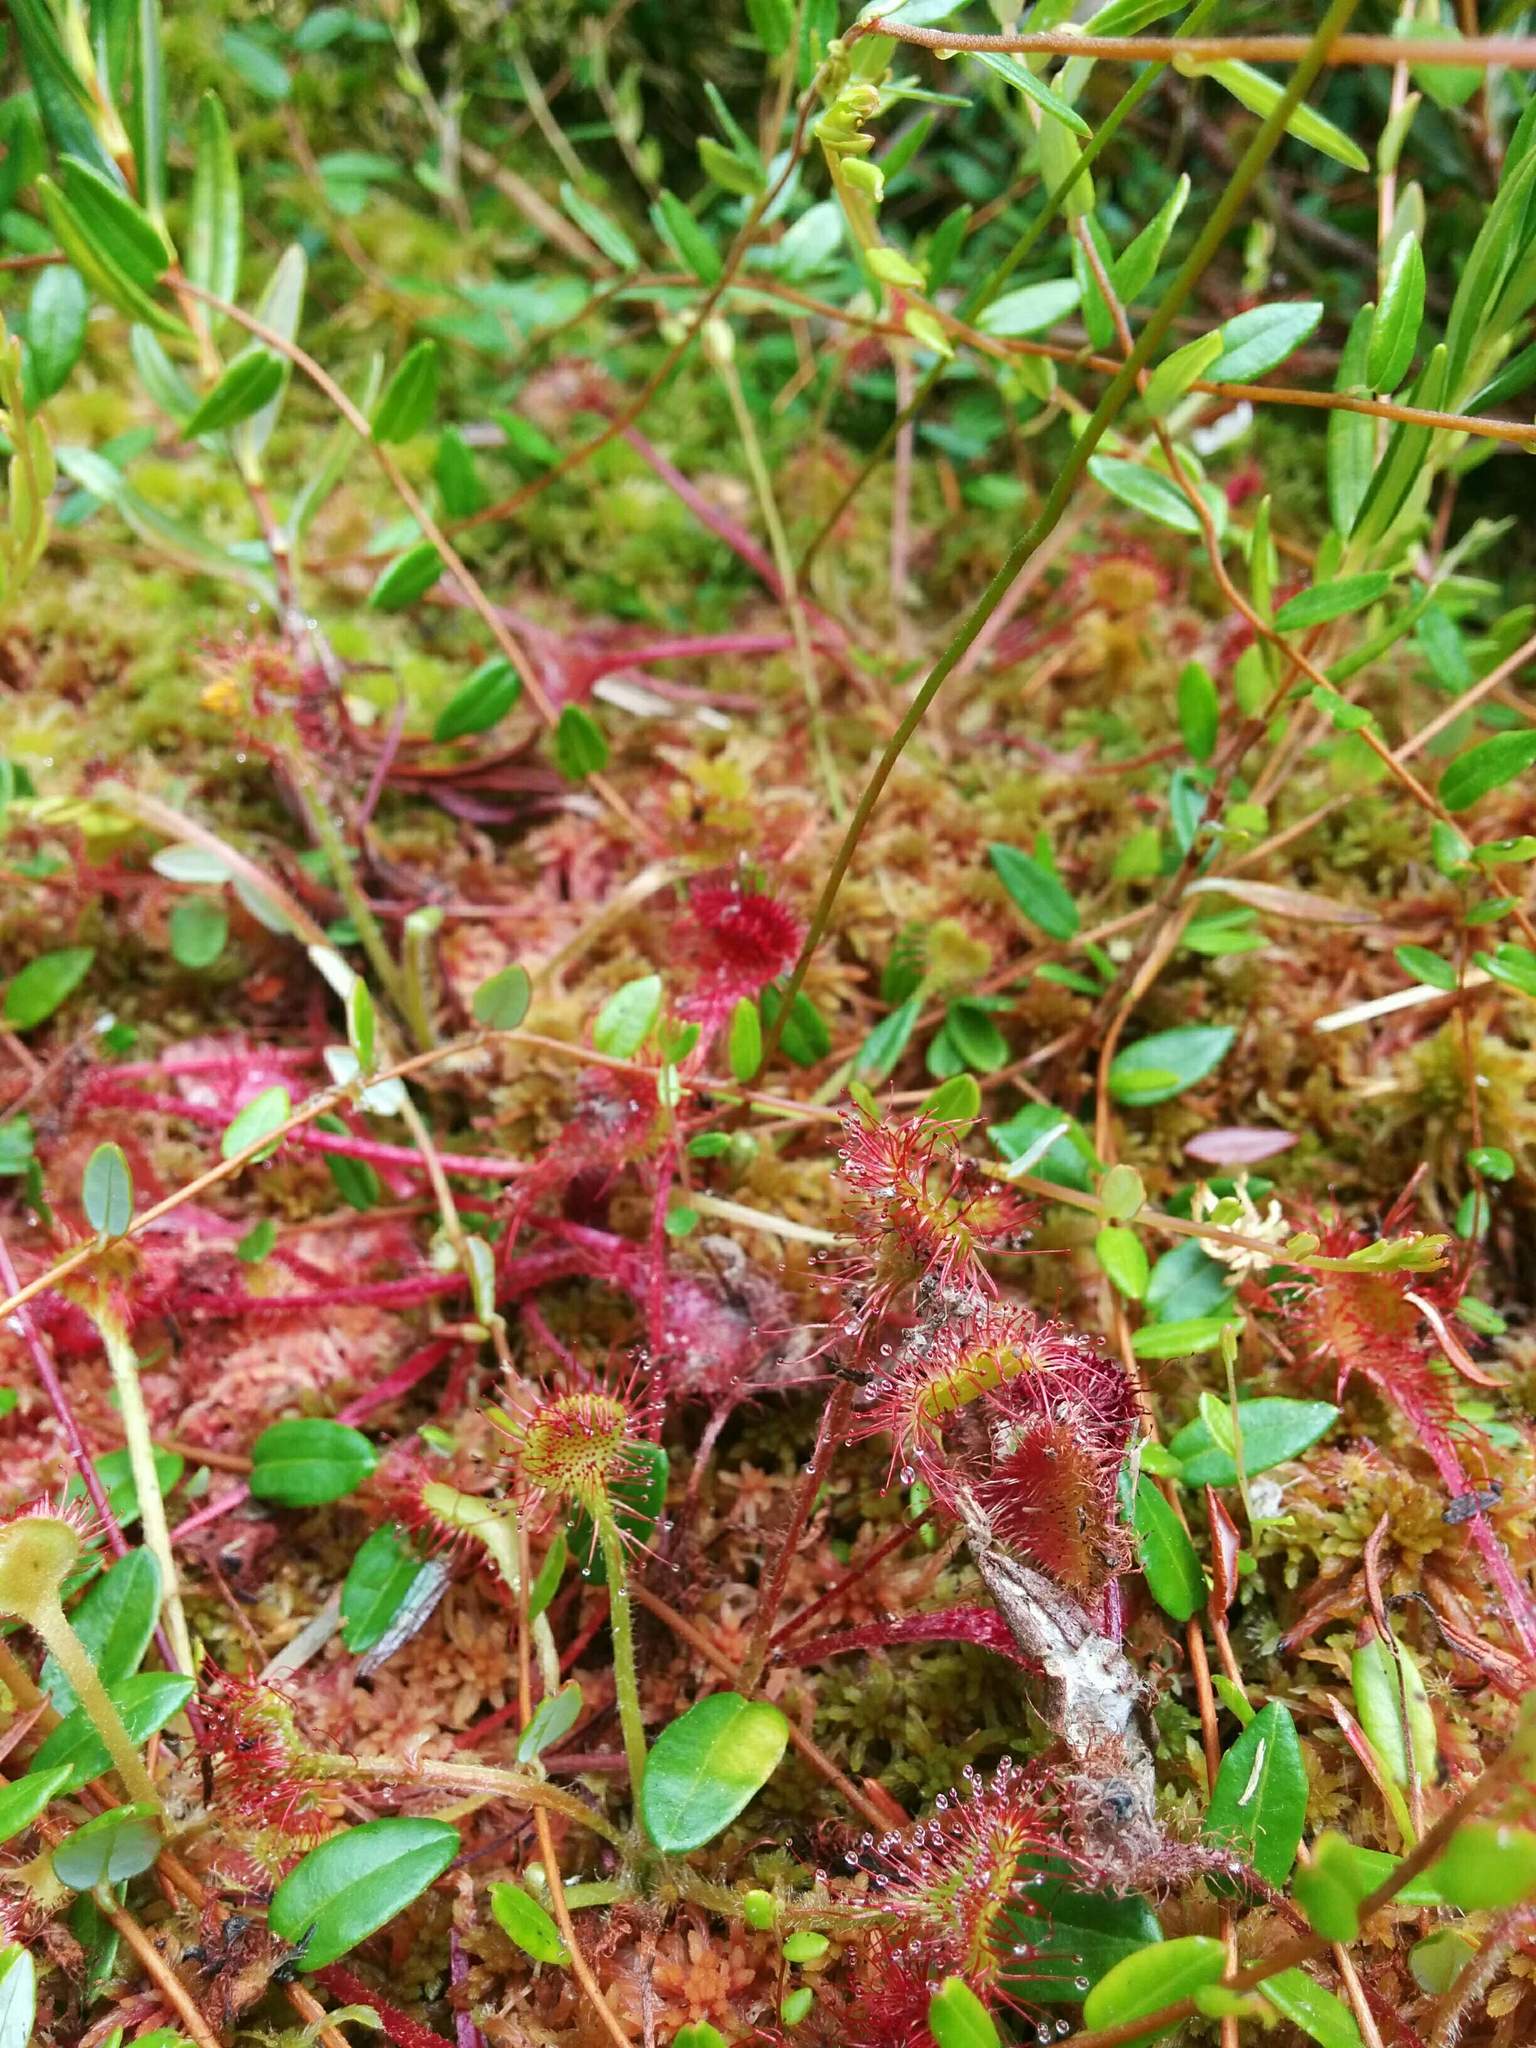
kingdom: Plantae
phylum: Tracheophyta
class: Magnoliopsida
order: Caryophyllales
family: Droseraceae
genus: Drosera
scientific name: Drosera rotundifolia
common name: Round-leaved sundew
